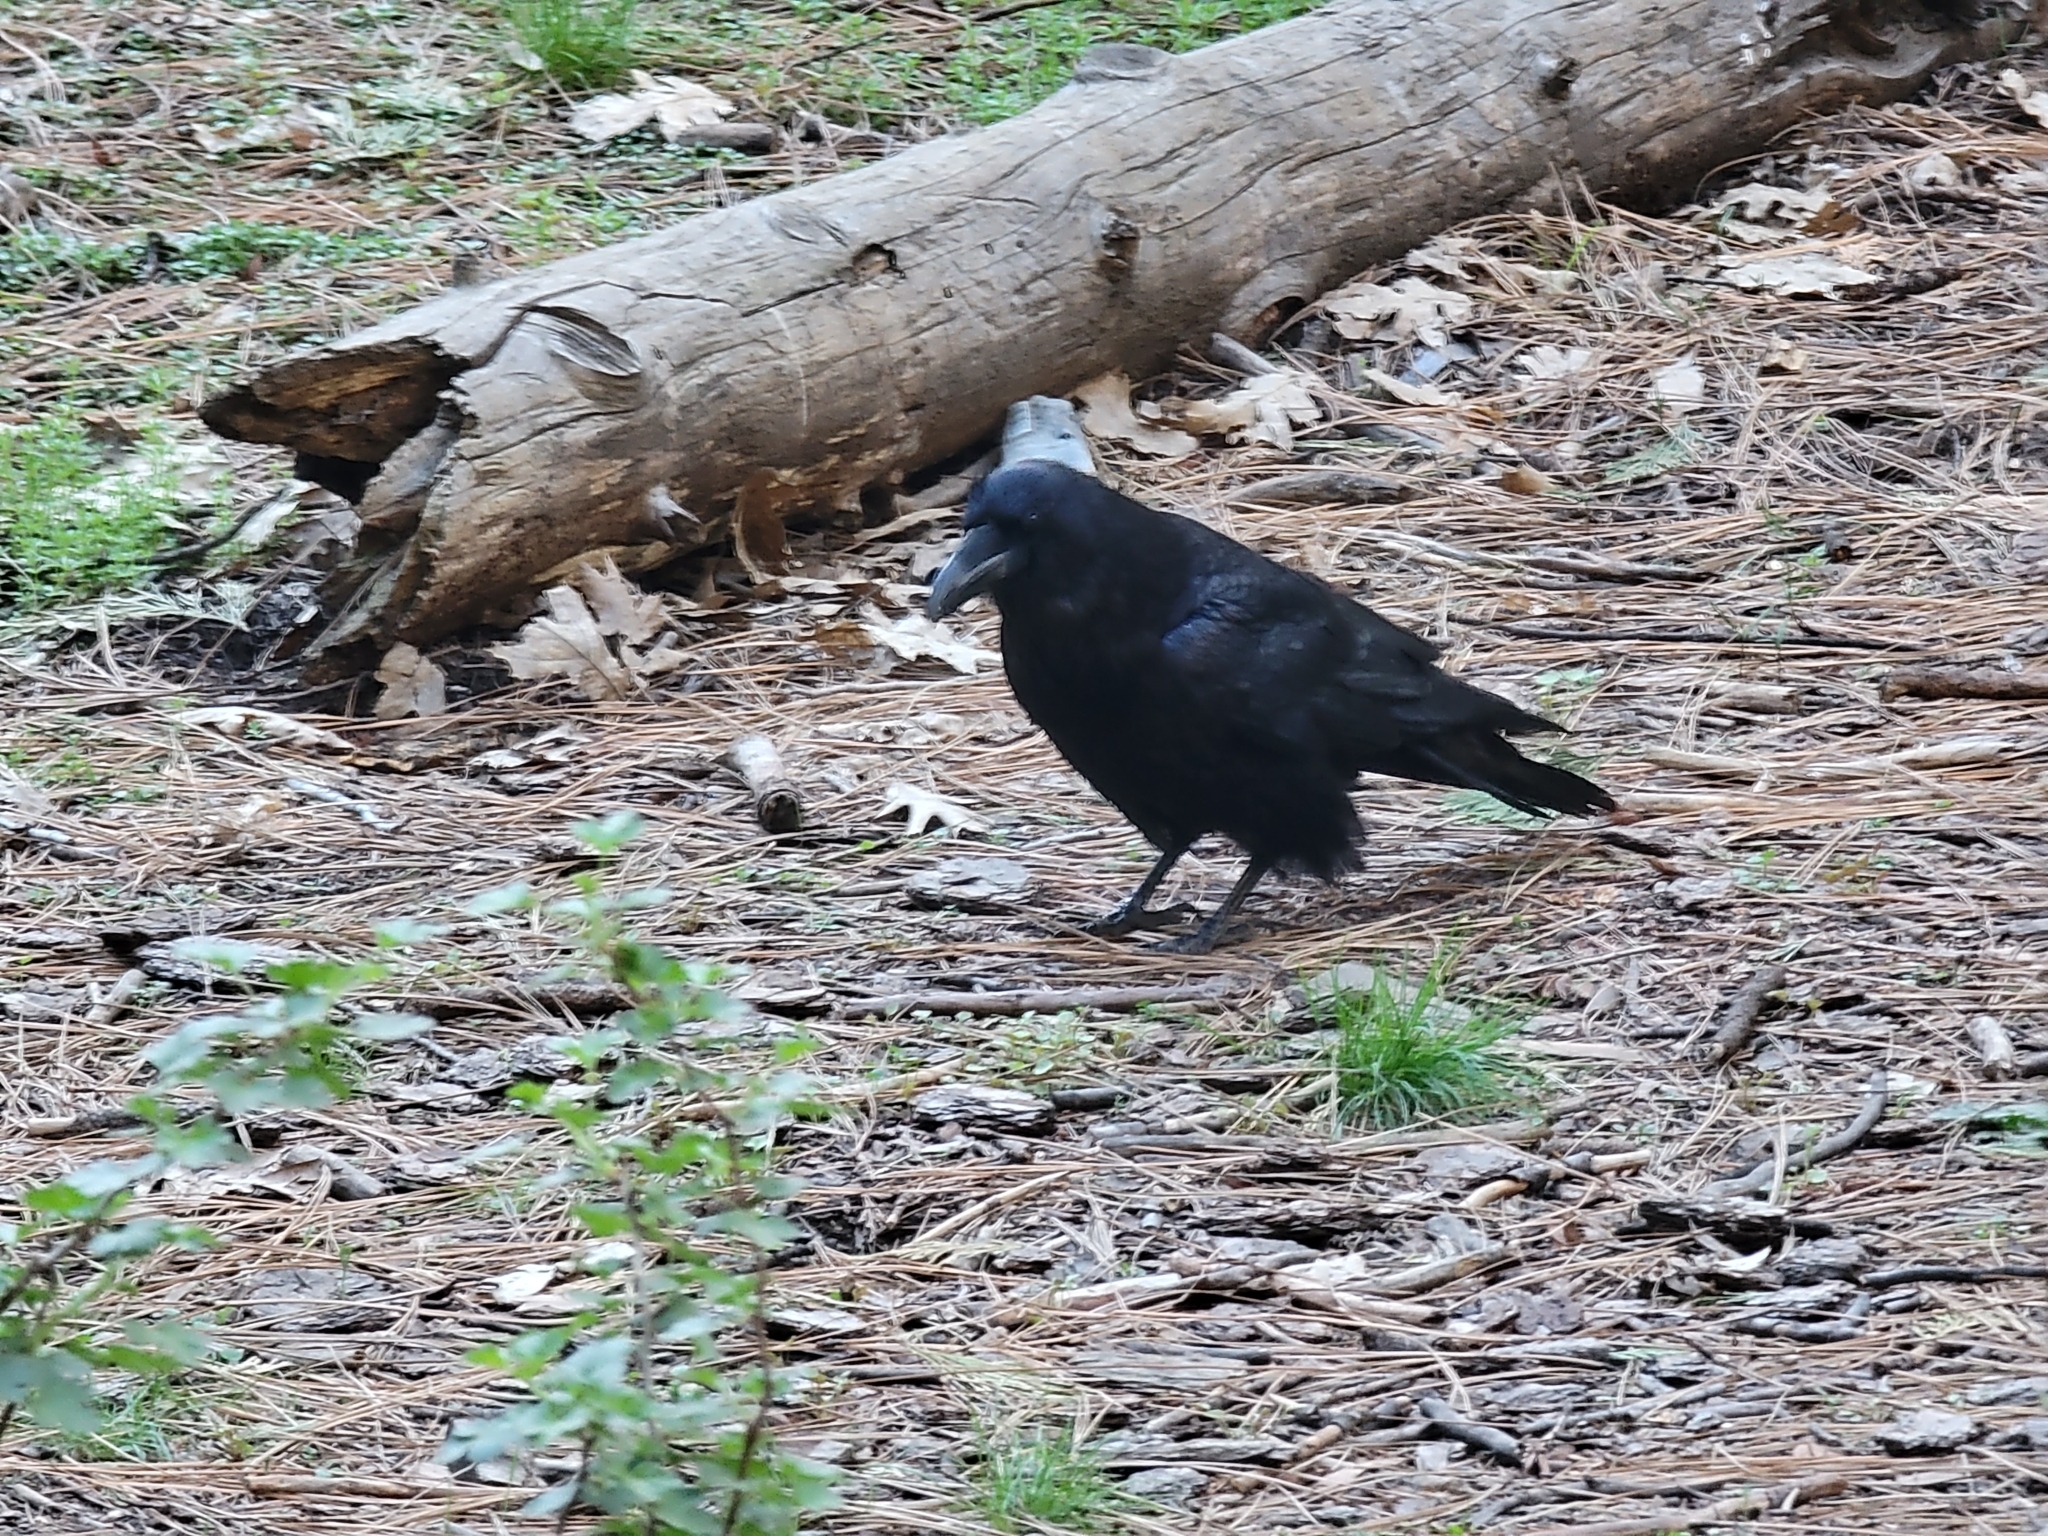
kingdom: Animalia
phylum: Chordata
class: Aves
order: Passeriformes
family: Corvidae
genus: Corvus
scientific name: Corvus corax
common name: Common raven
